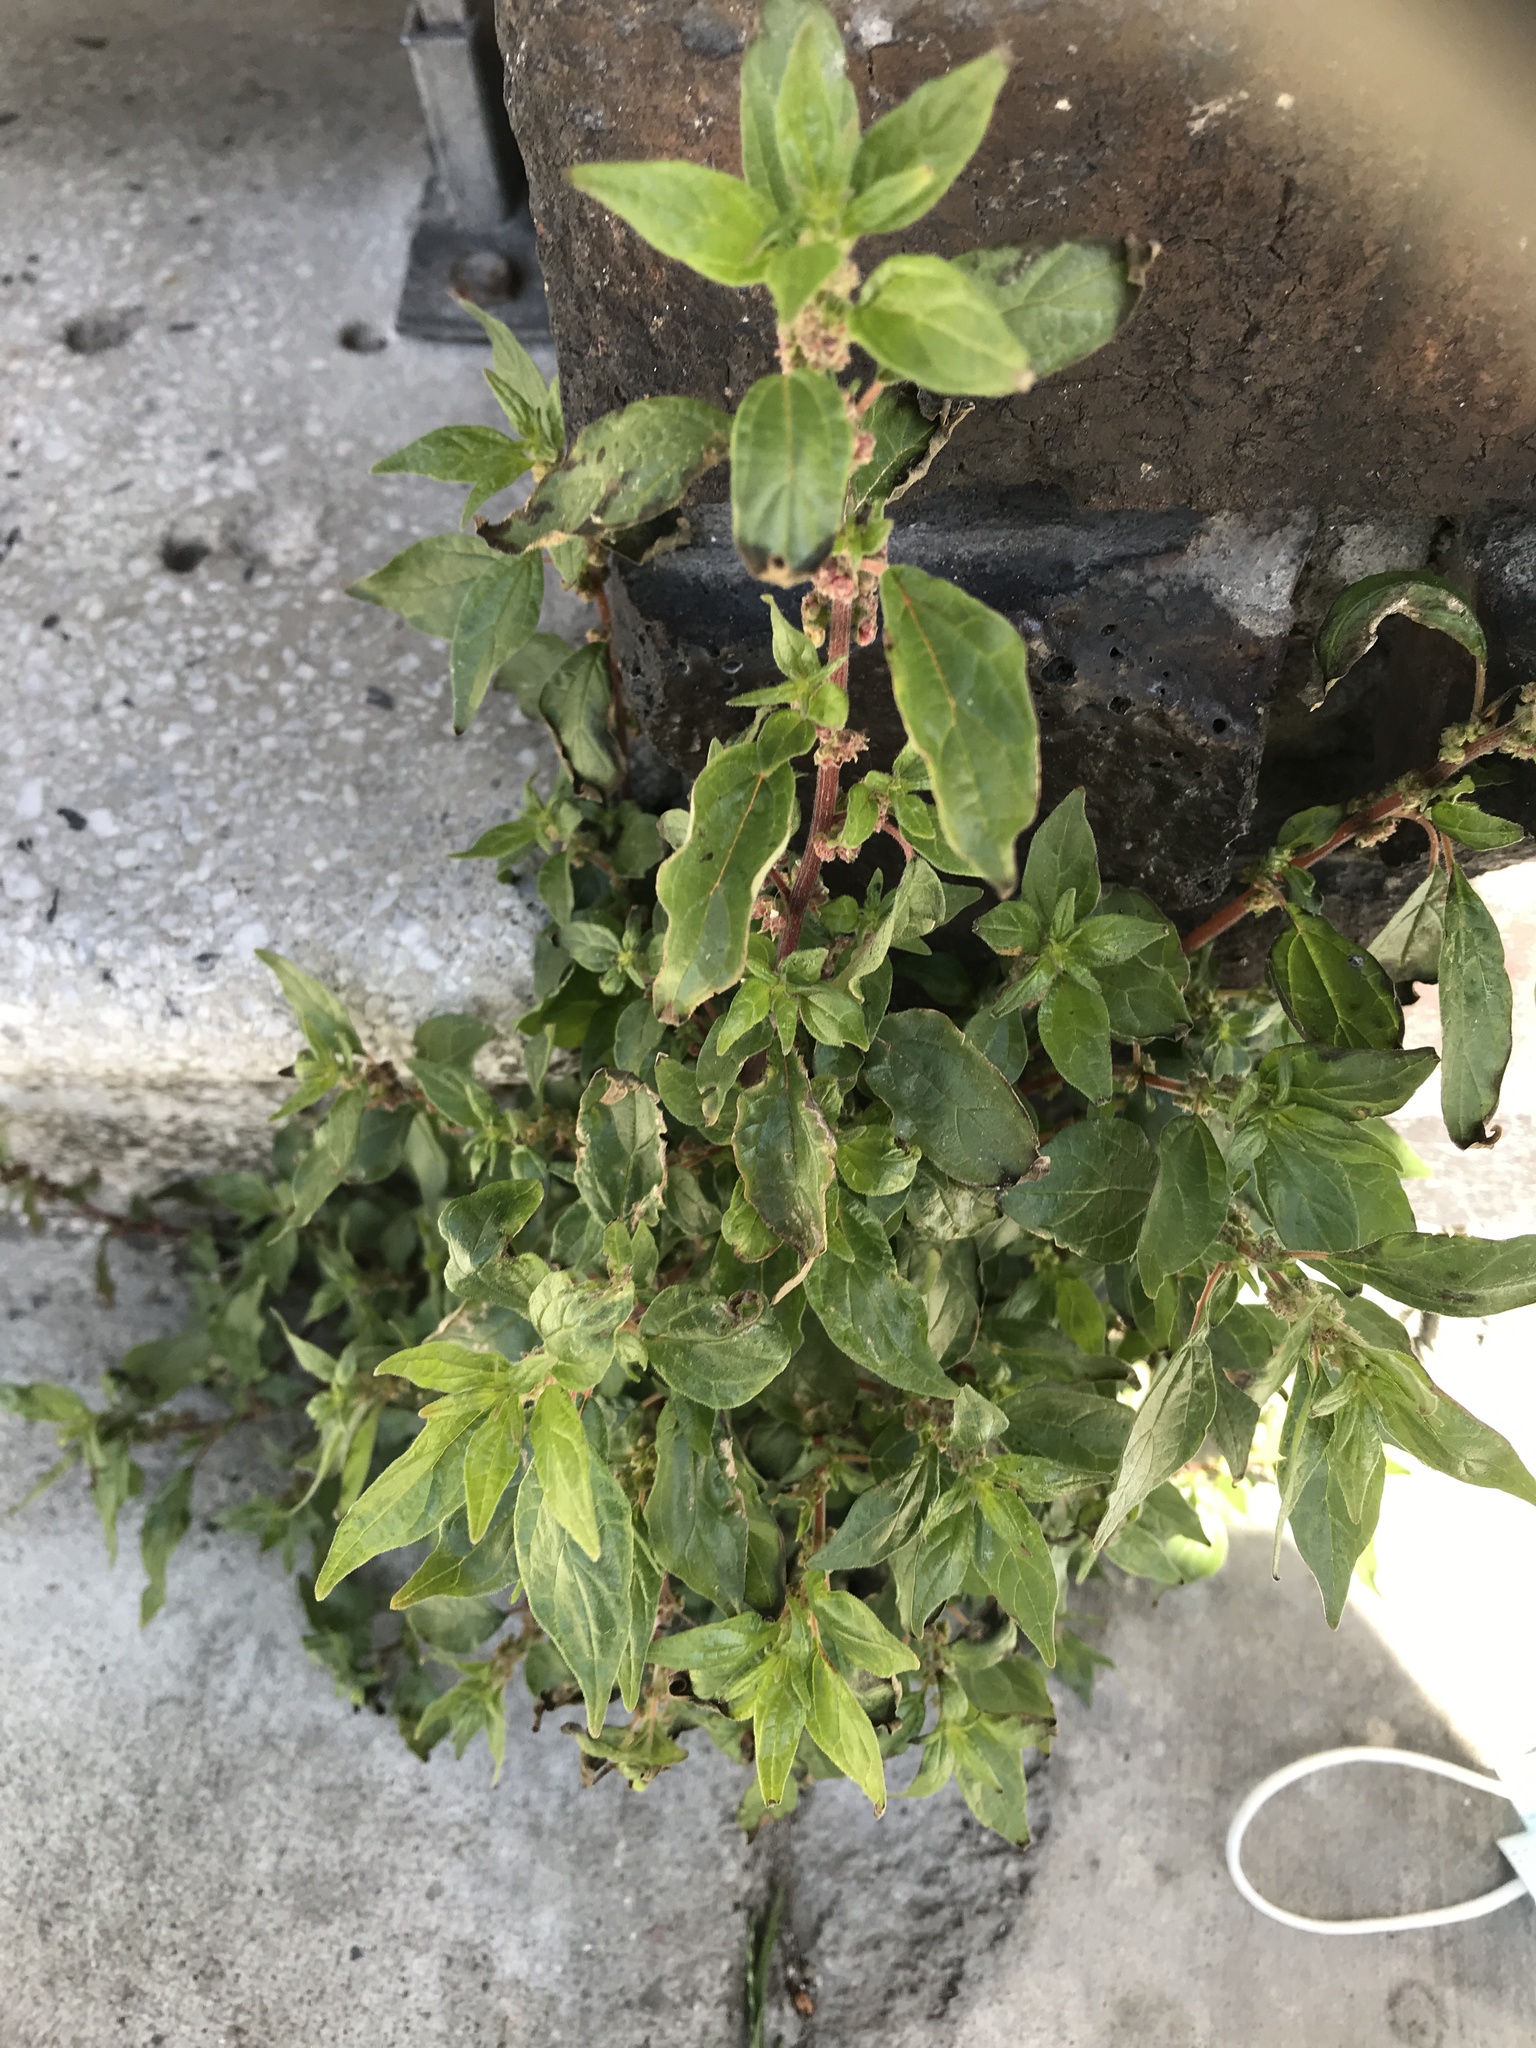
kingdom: Plantae
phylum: Tracheophyta
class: Magnoliopsida
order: Rosales
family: Urticaceae
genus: Parietaria
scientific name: Parietaria judaica
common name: Pellitory-of-the-wall
